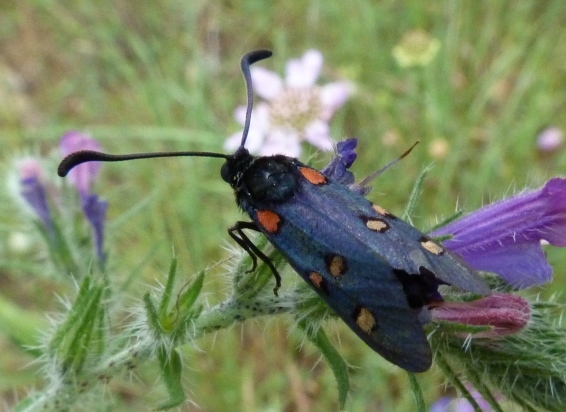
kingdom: Animalia
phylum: Arthropoda
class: Insecta
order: Lepidoptera
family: Zygaenidae
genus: Zygaena
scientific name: Zygaena lavandulae
